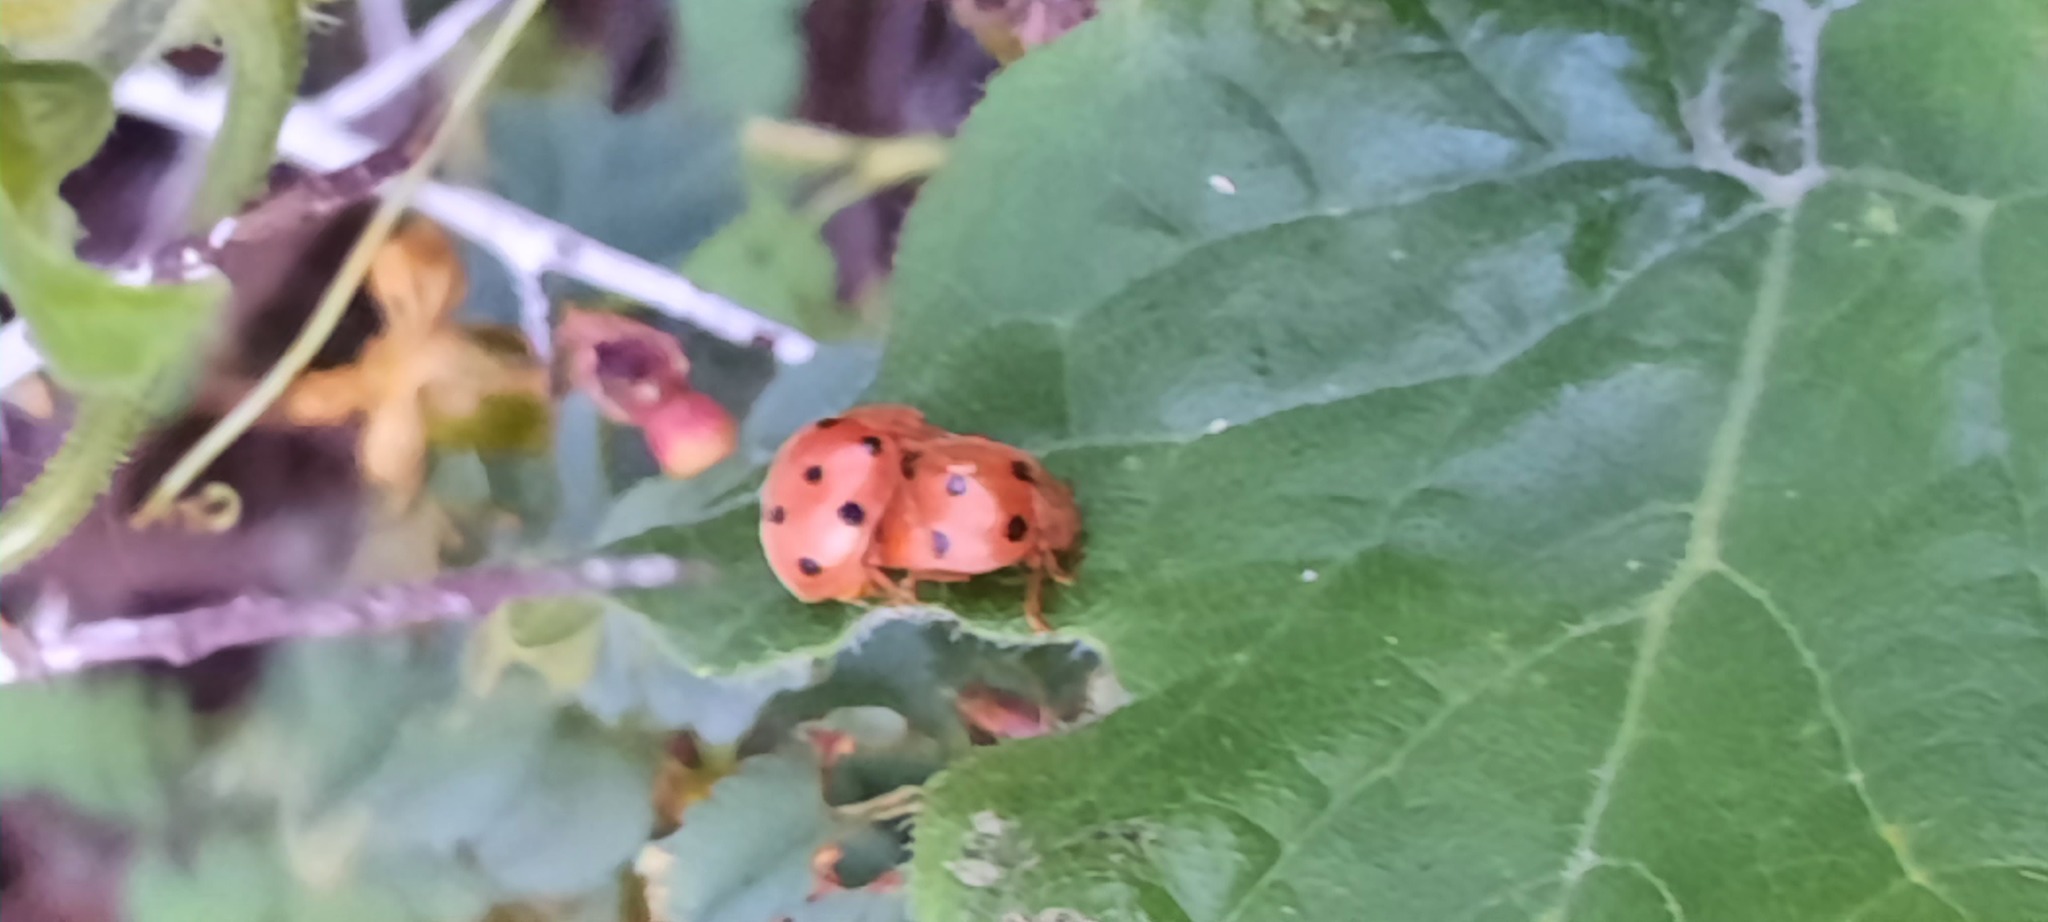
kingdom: Animalia
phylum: Arthropoda
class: Insecta
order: Coleoptera
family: Coccinellidae
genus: Henosepilachna
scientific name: Henosepilachna argus
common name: Bryony ladybird
